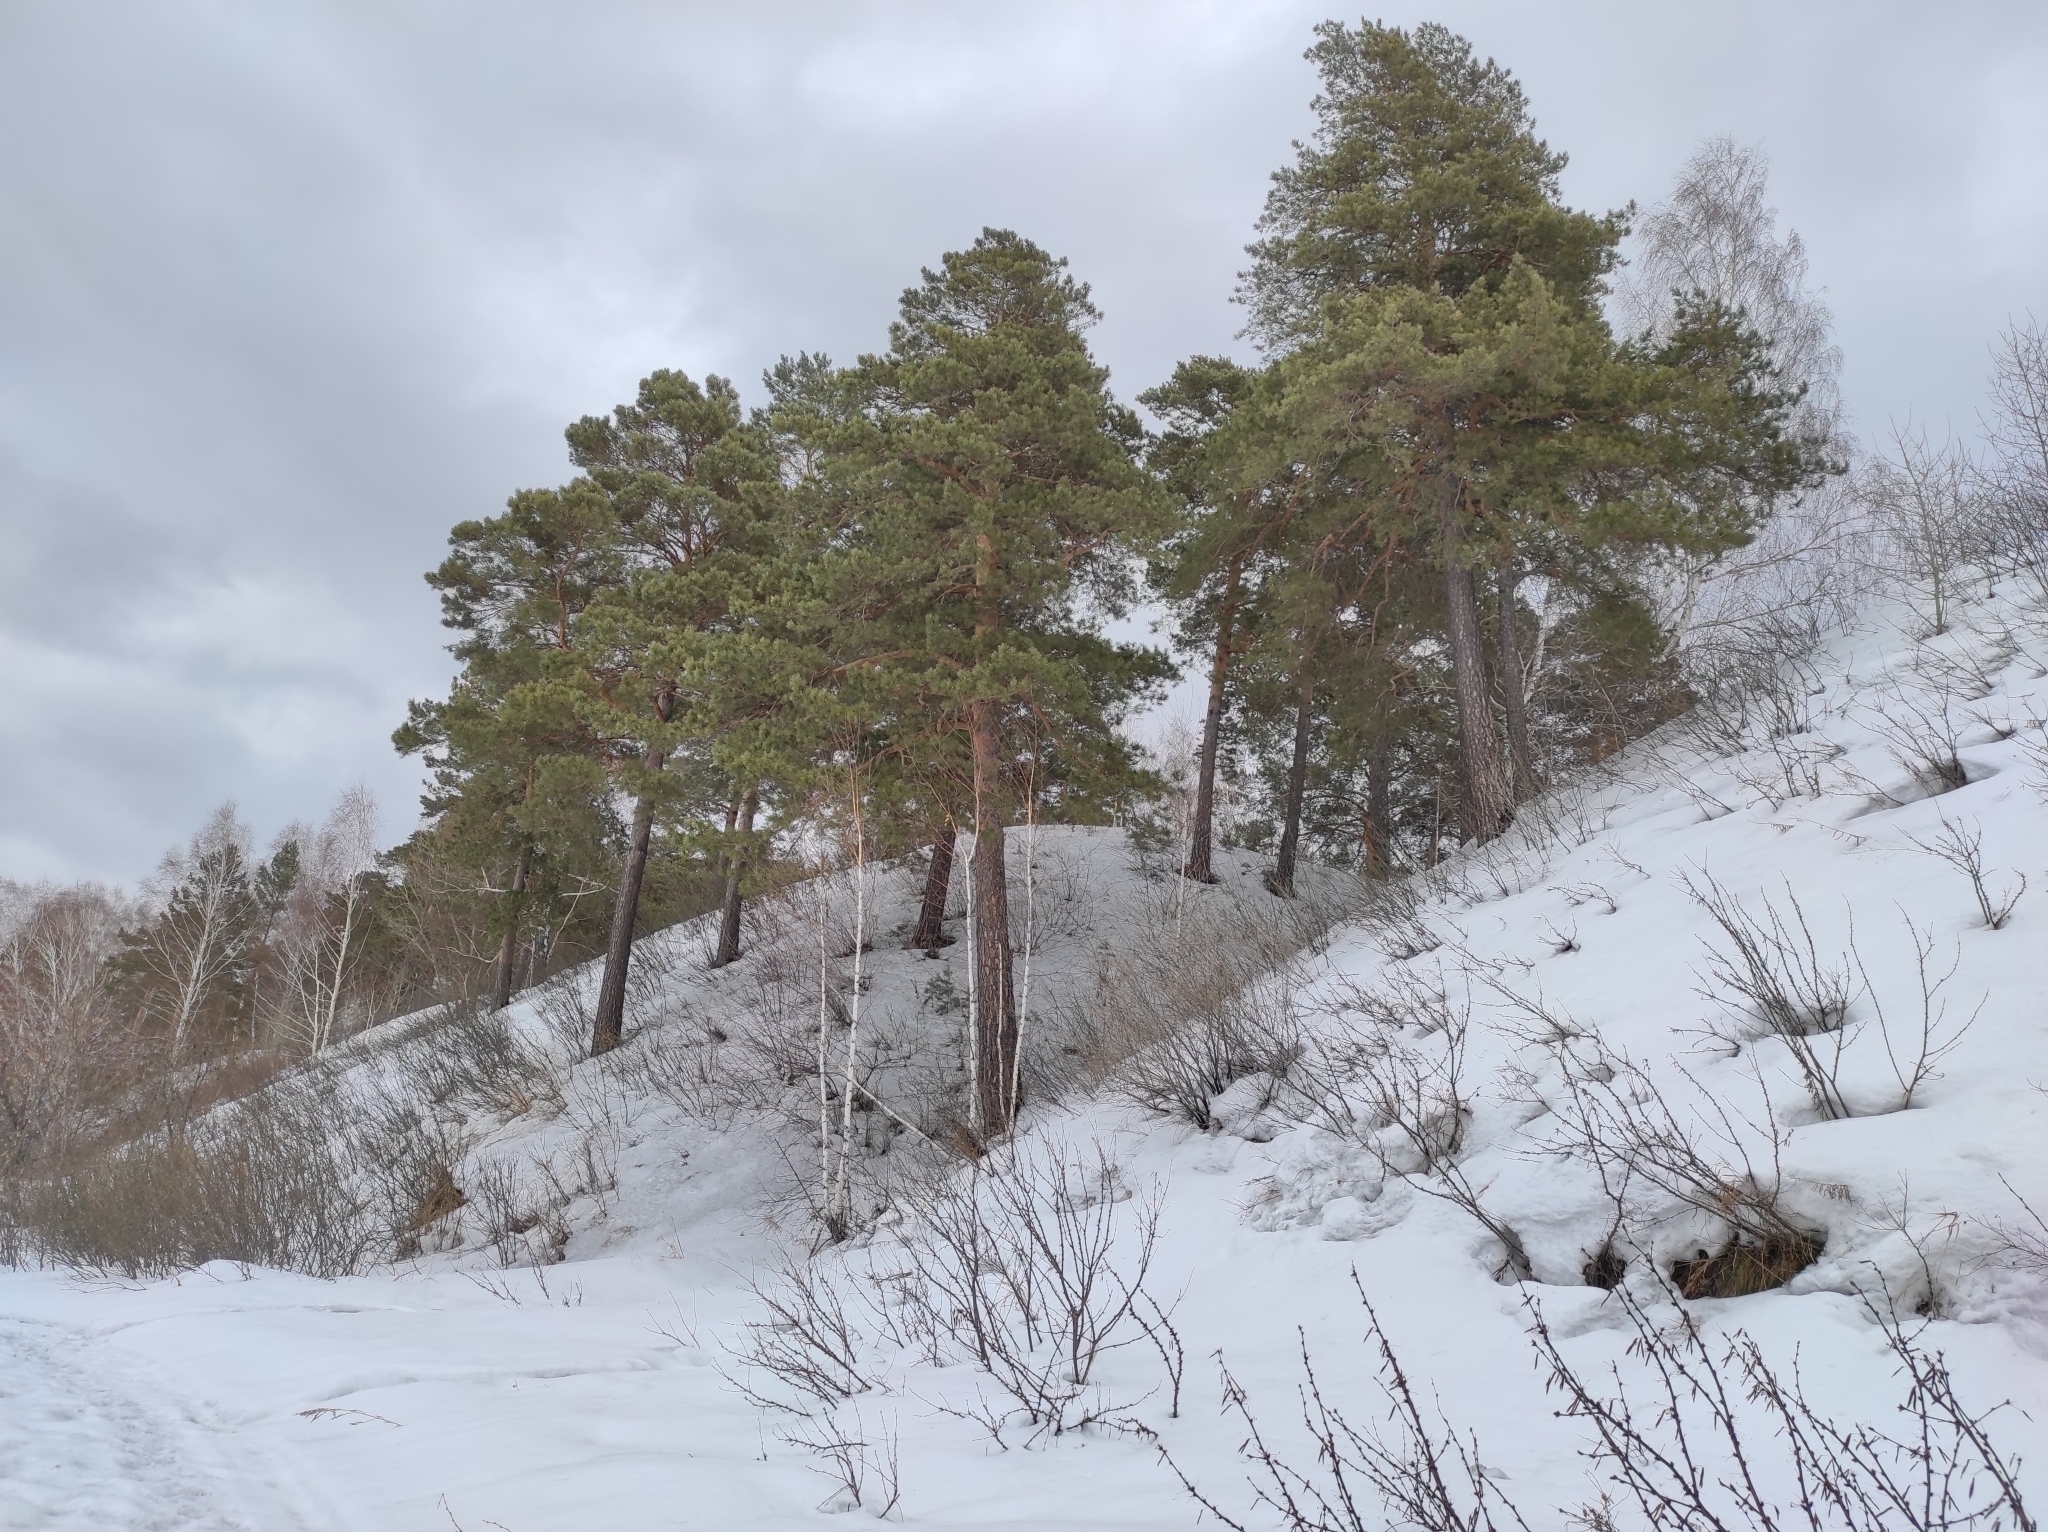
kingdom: Plantae
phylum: Tracheophyta
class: Pinopsida
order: Pinales
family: Pinaceae
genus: Pinus
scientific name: Pinus sylvestris
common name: Scots pine
